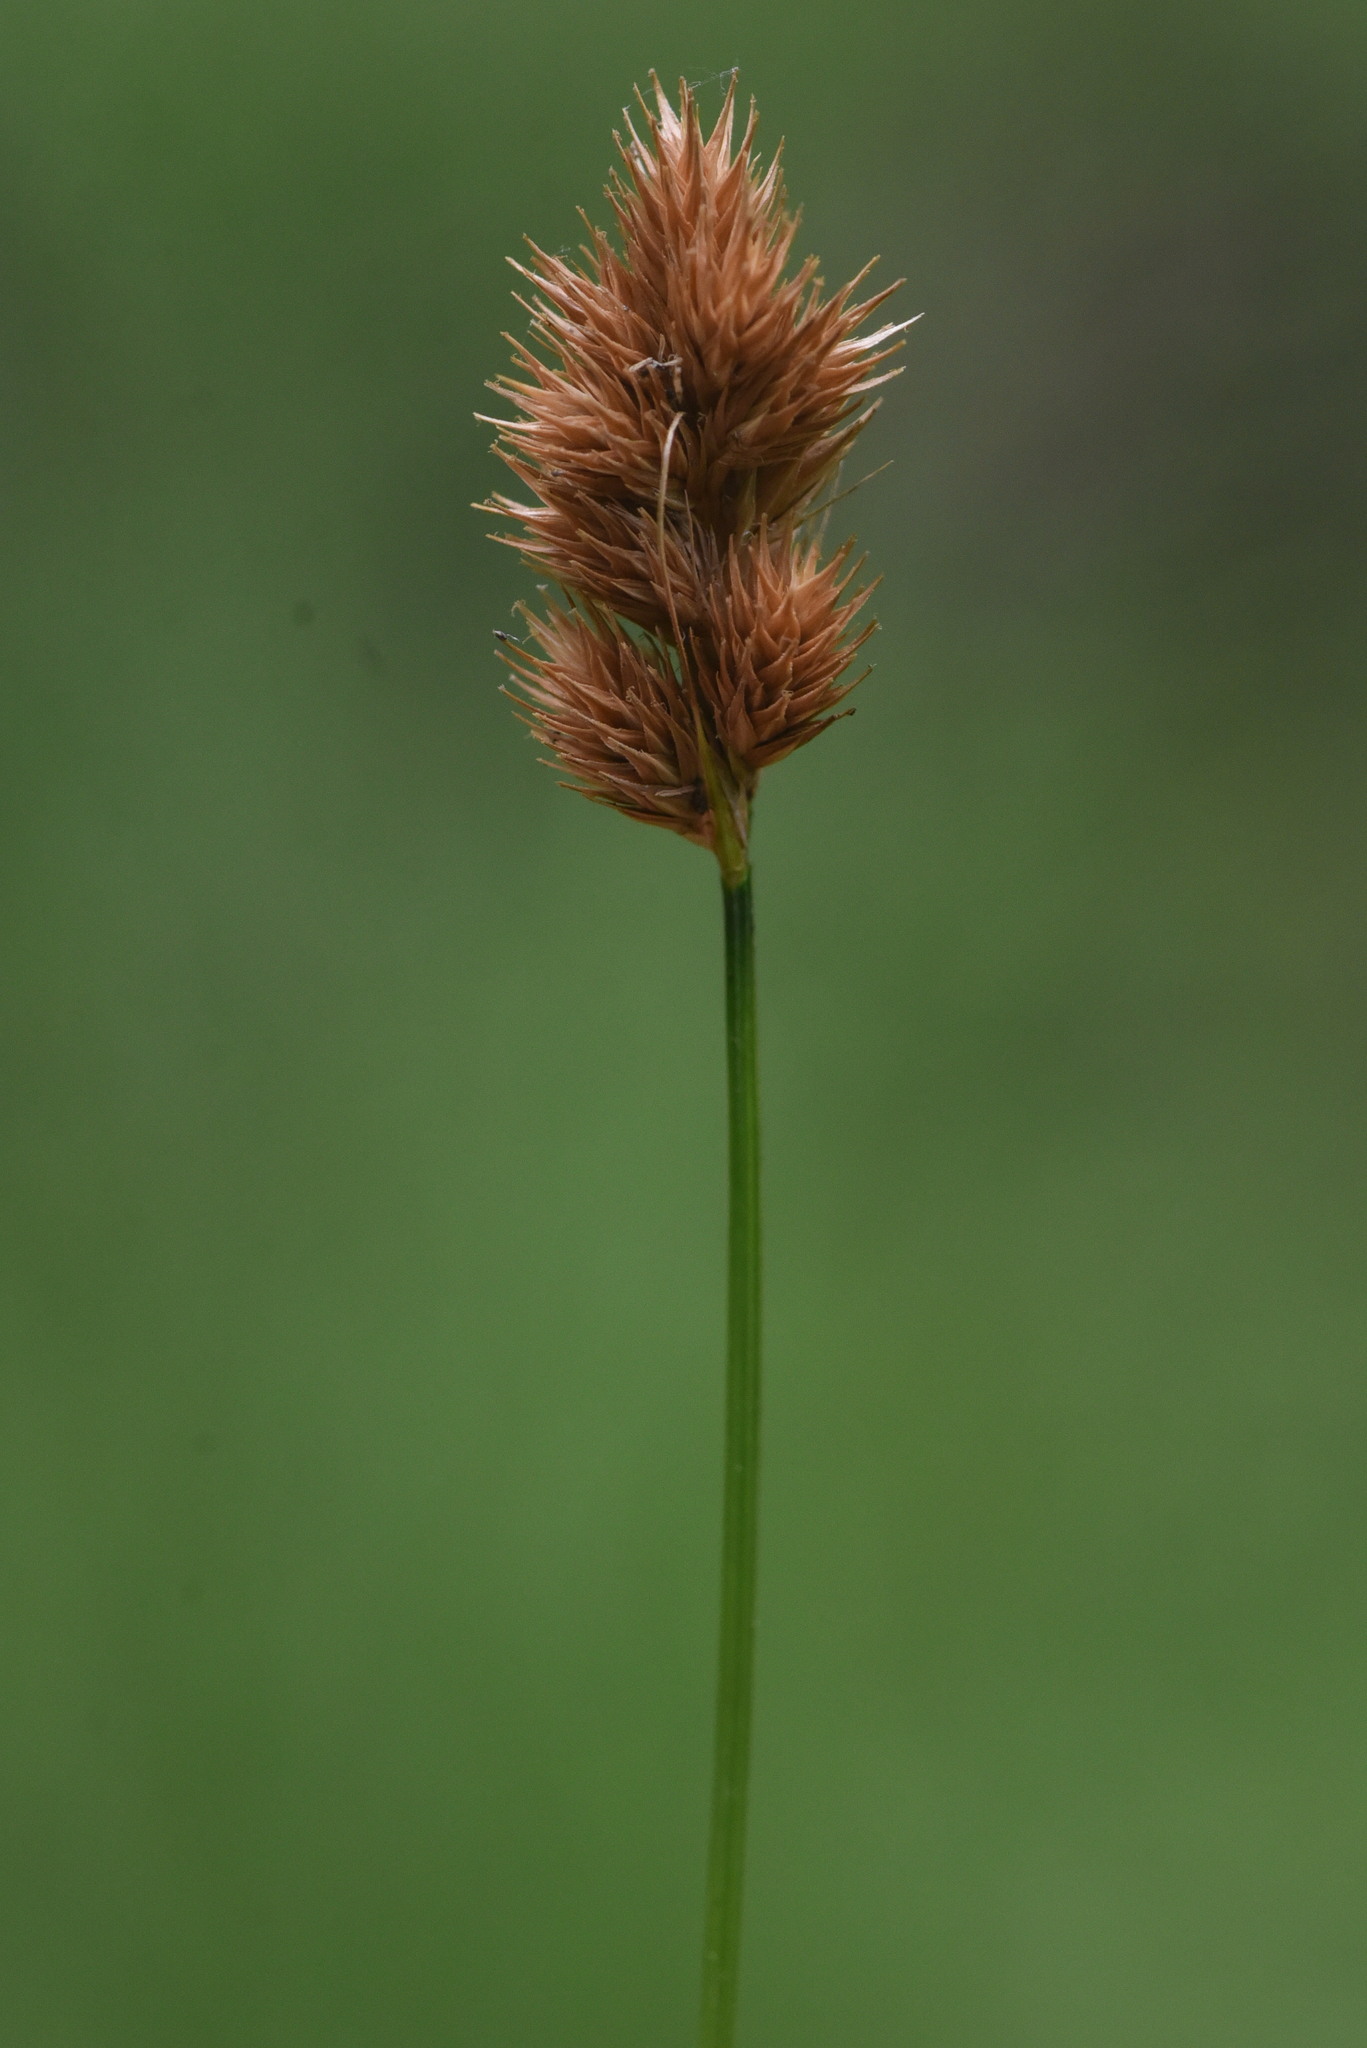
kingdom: Plantae
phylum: Tracheophyta
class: Liliopsida
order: Poales
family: Cyperaceae
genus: Carex
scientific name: Carex crawfordii
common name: Crawford's sedge
